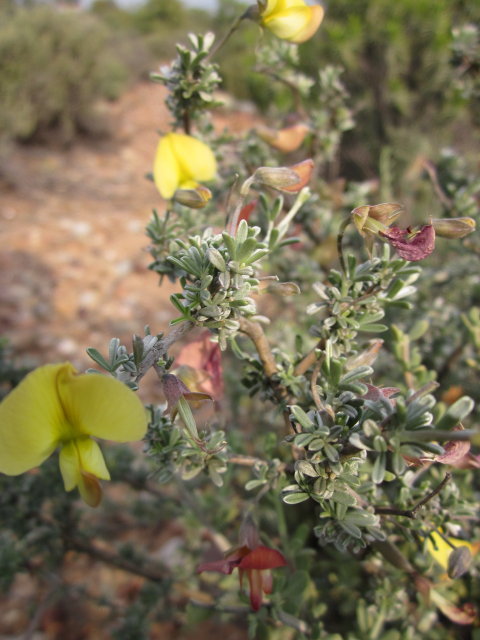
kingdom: Plantae
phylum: Tracheophyta
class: Magnoliopsida
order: Fabales
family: Fabaceae
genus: Lotononis
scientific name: Lotononis dahlgrenii
